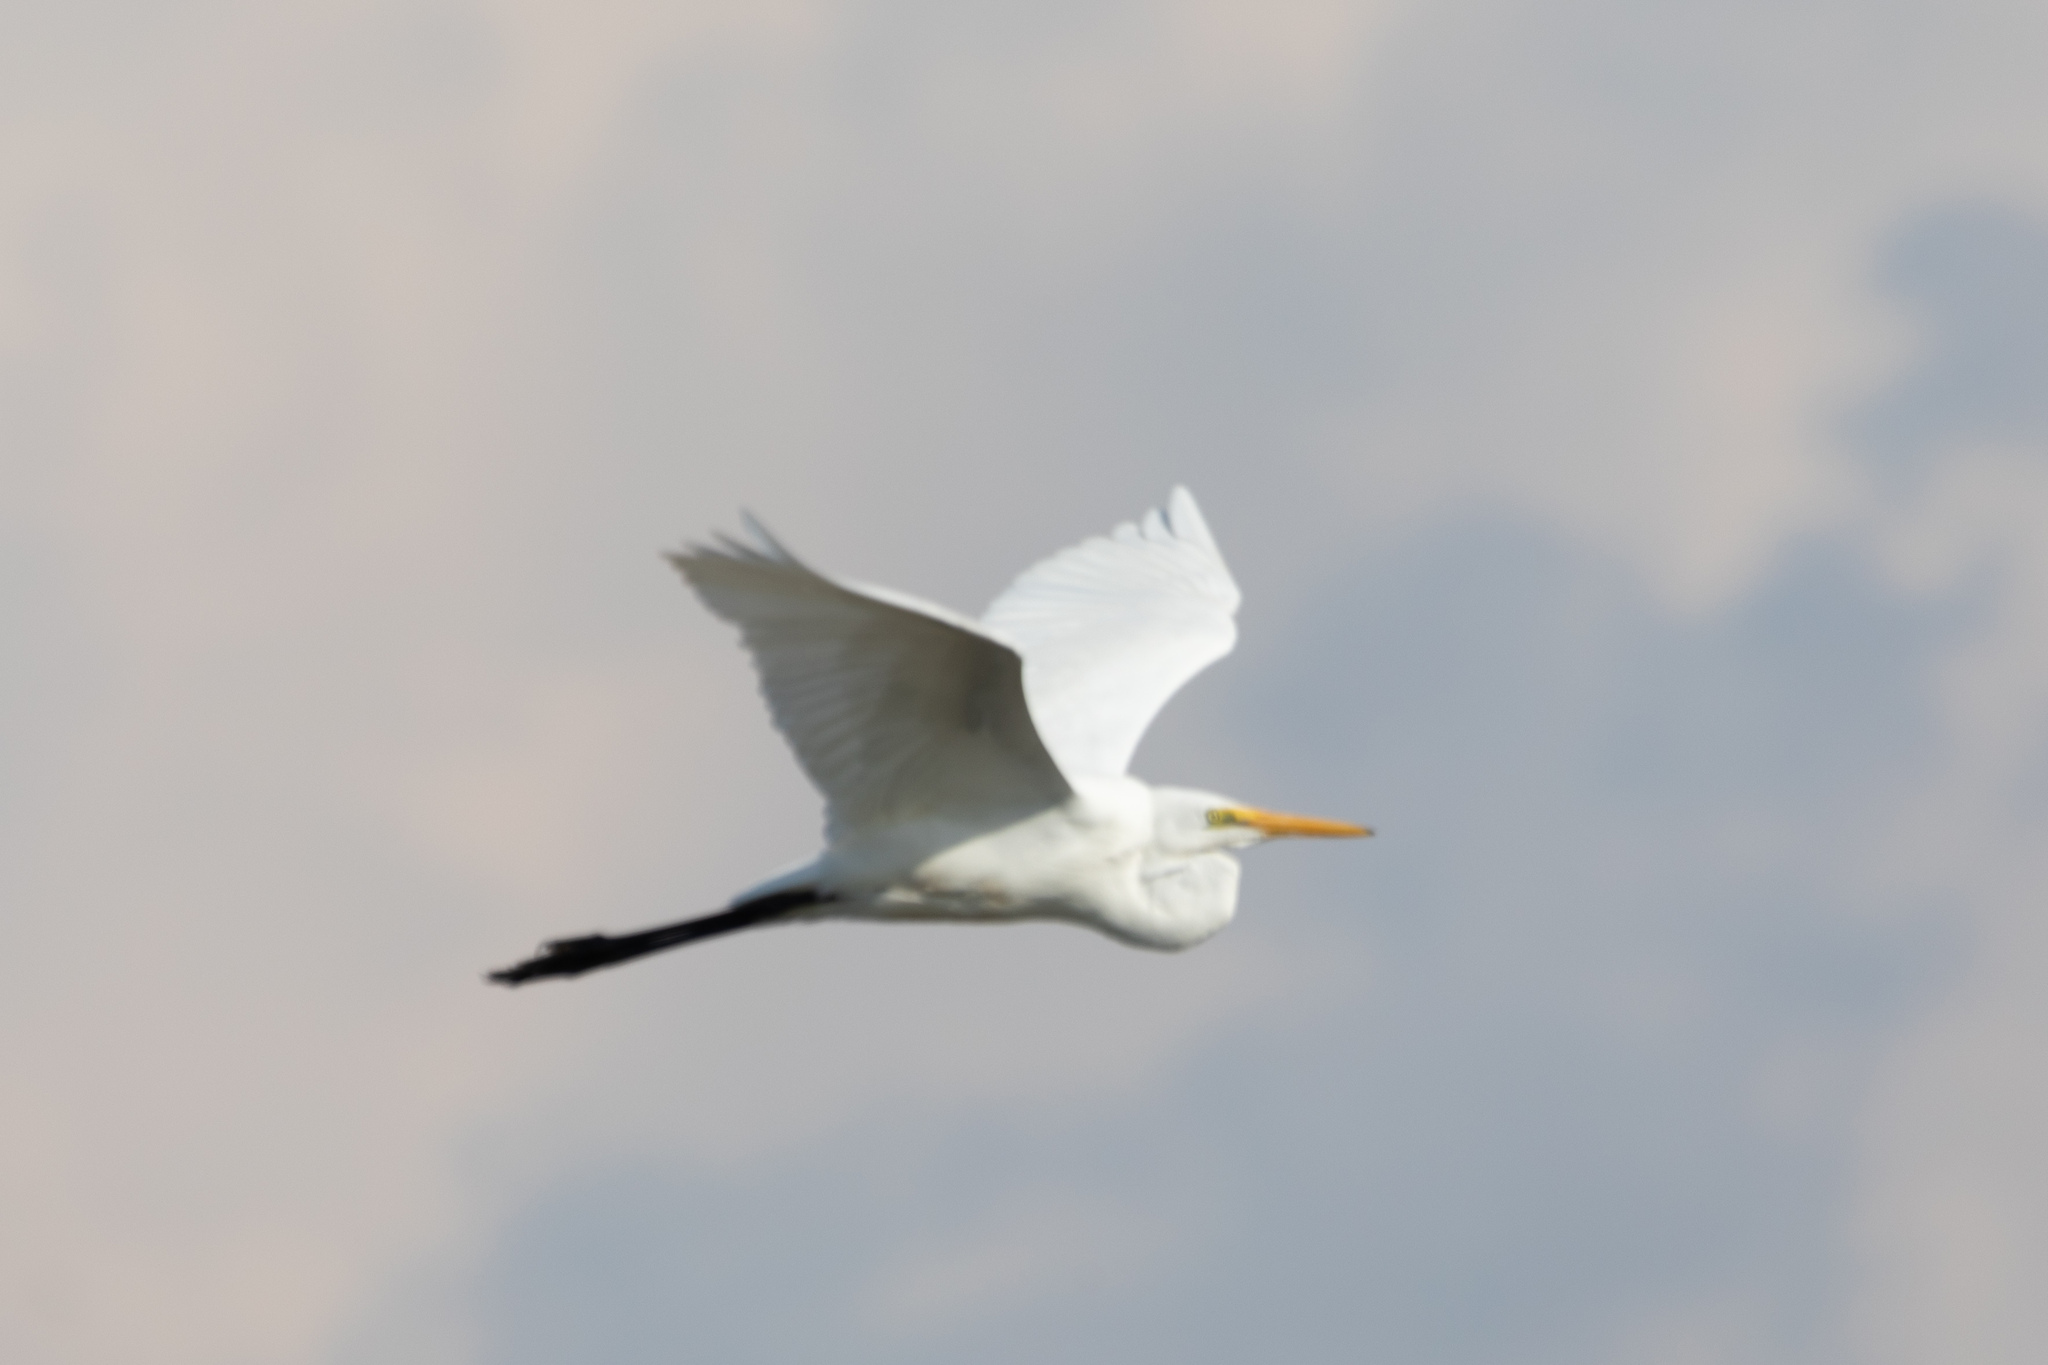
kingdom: Animalia
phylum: Chordata
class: Aves
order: Pelecaniformes
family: Ardeidae
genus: Ardea
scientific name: Ardea alba
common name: Great egret
